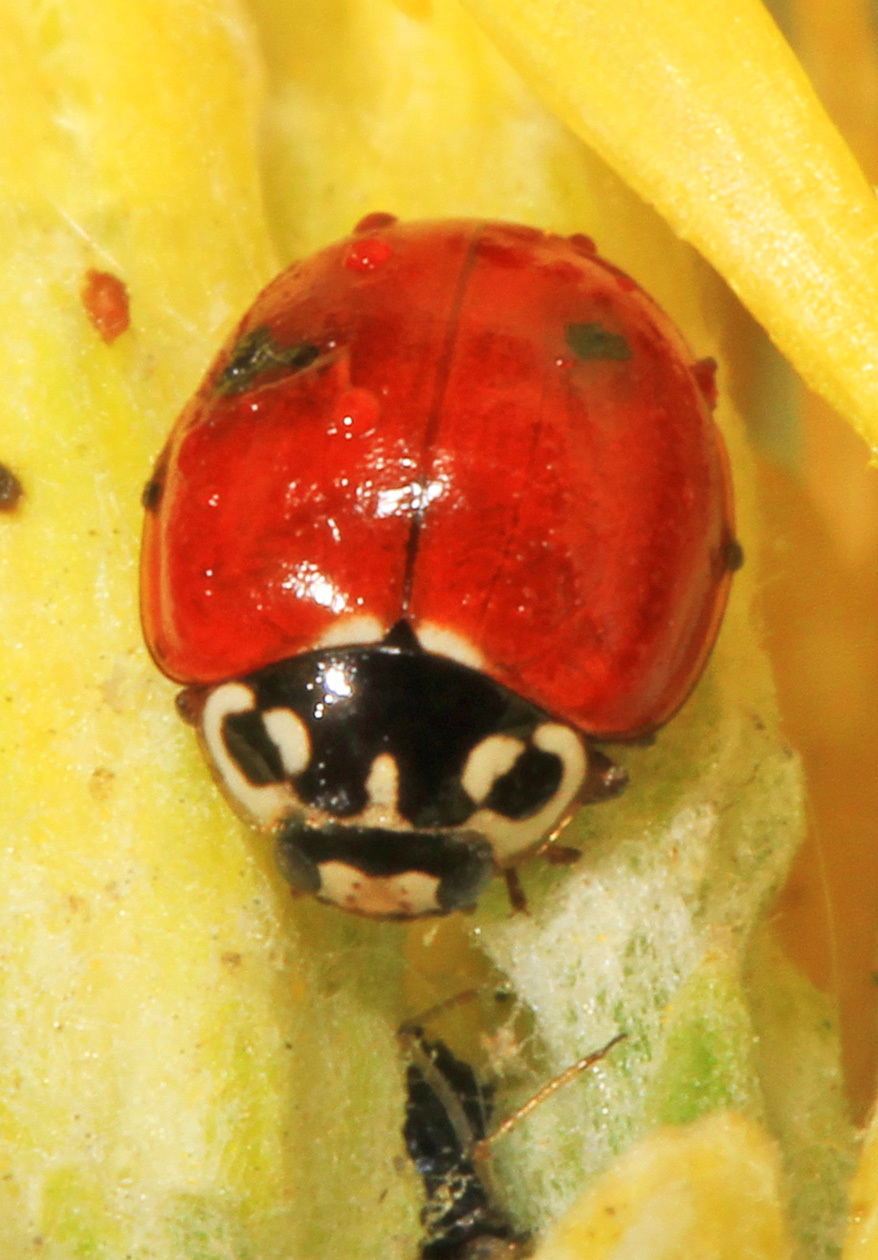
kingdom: Animalia
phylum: Arthropoda
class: Insecta
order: Coleoptera
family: Coccinellidae
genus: Cycloneda
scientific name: Cycloneda polita
